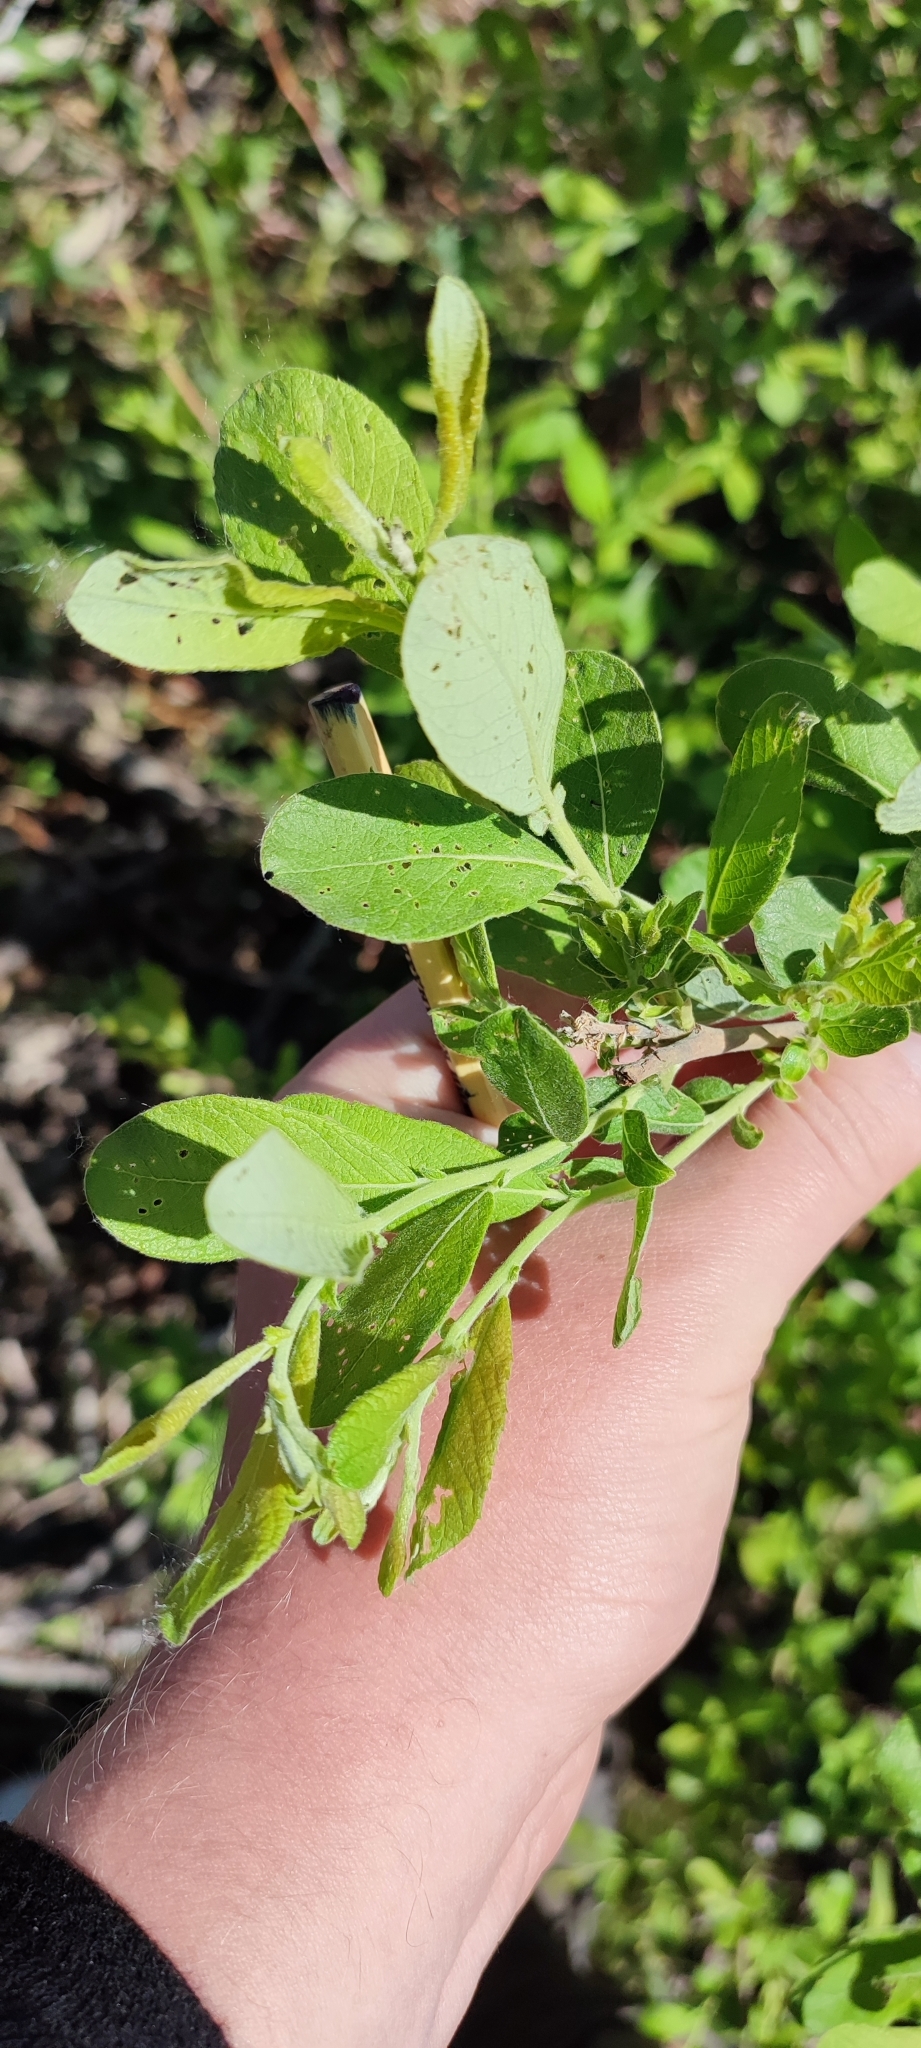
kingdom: Plantae
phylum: Tracheophyta
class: Magnoliopsida
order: Malpighiales
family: Salicaceae
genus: Salix
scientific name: Salix cinerea
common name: Common sallow
